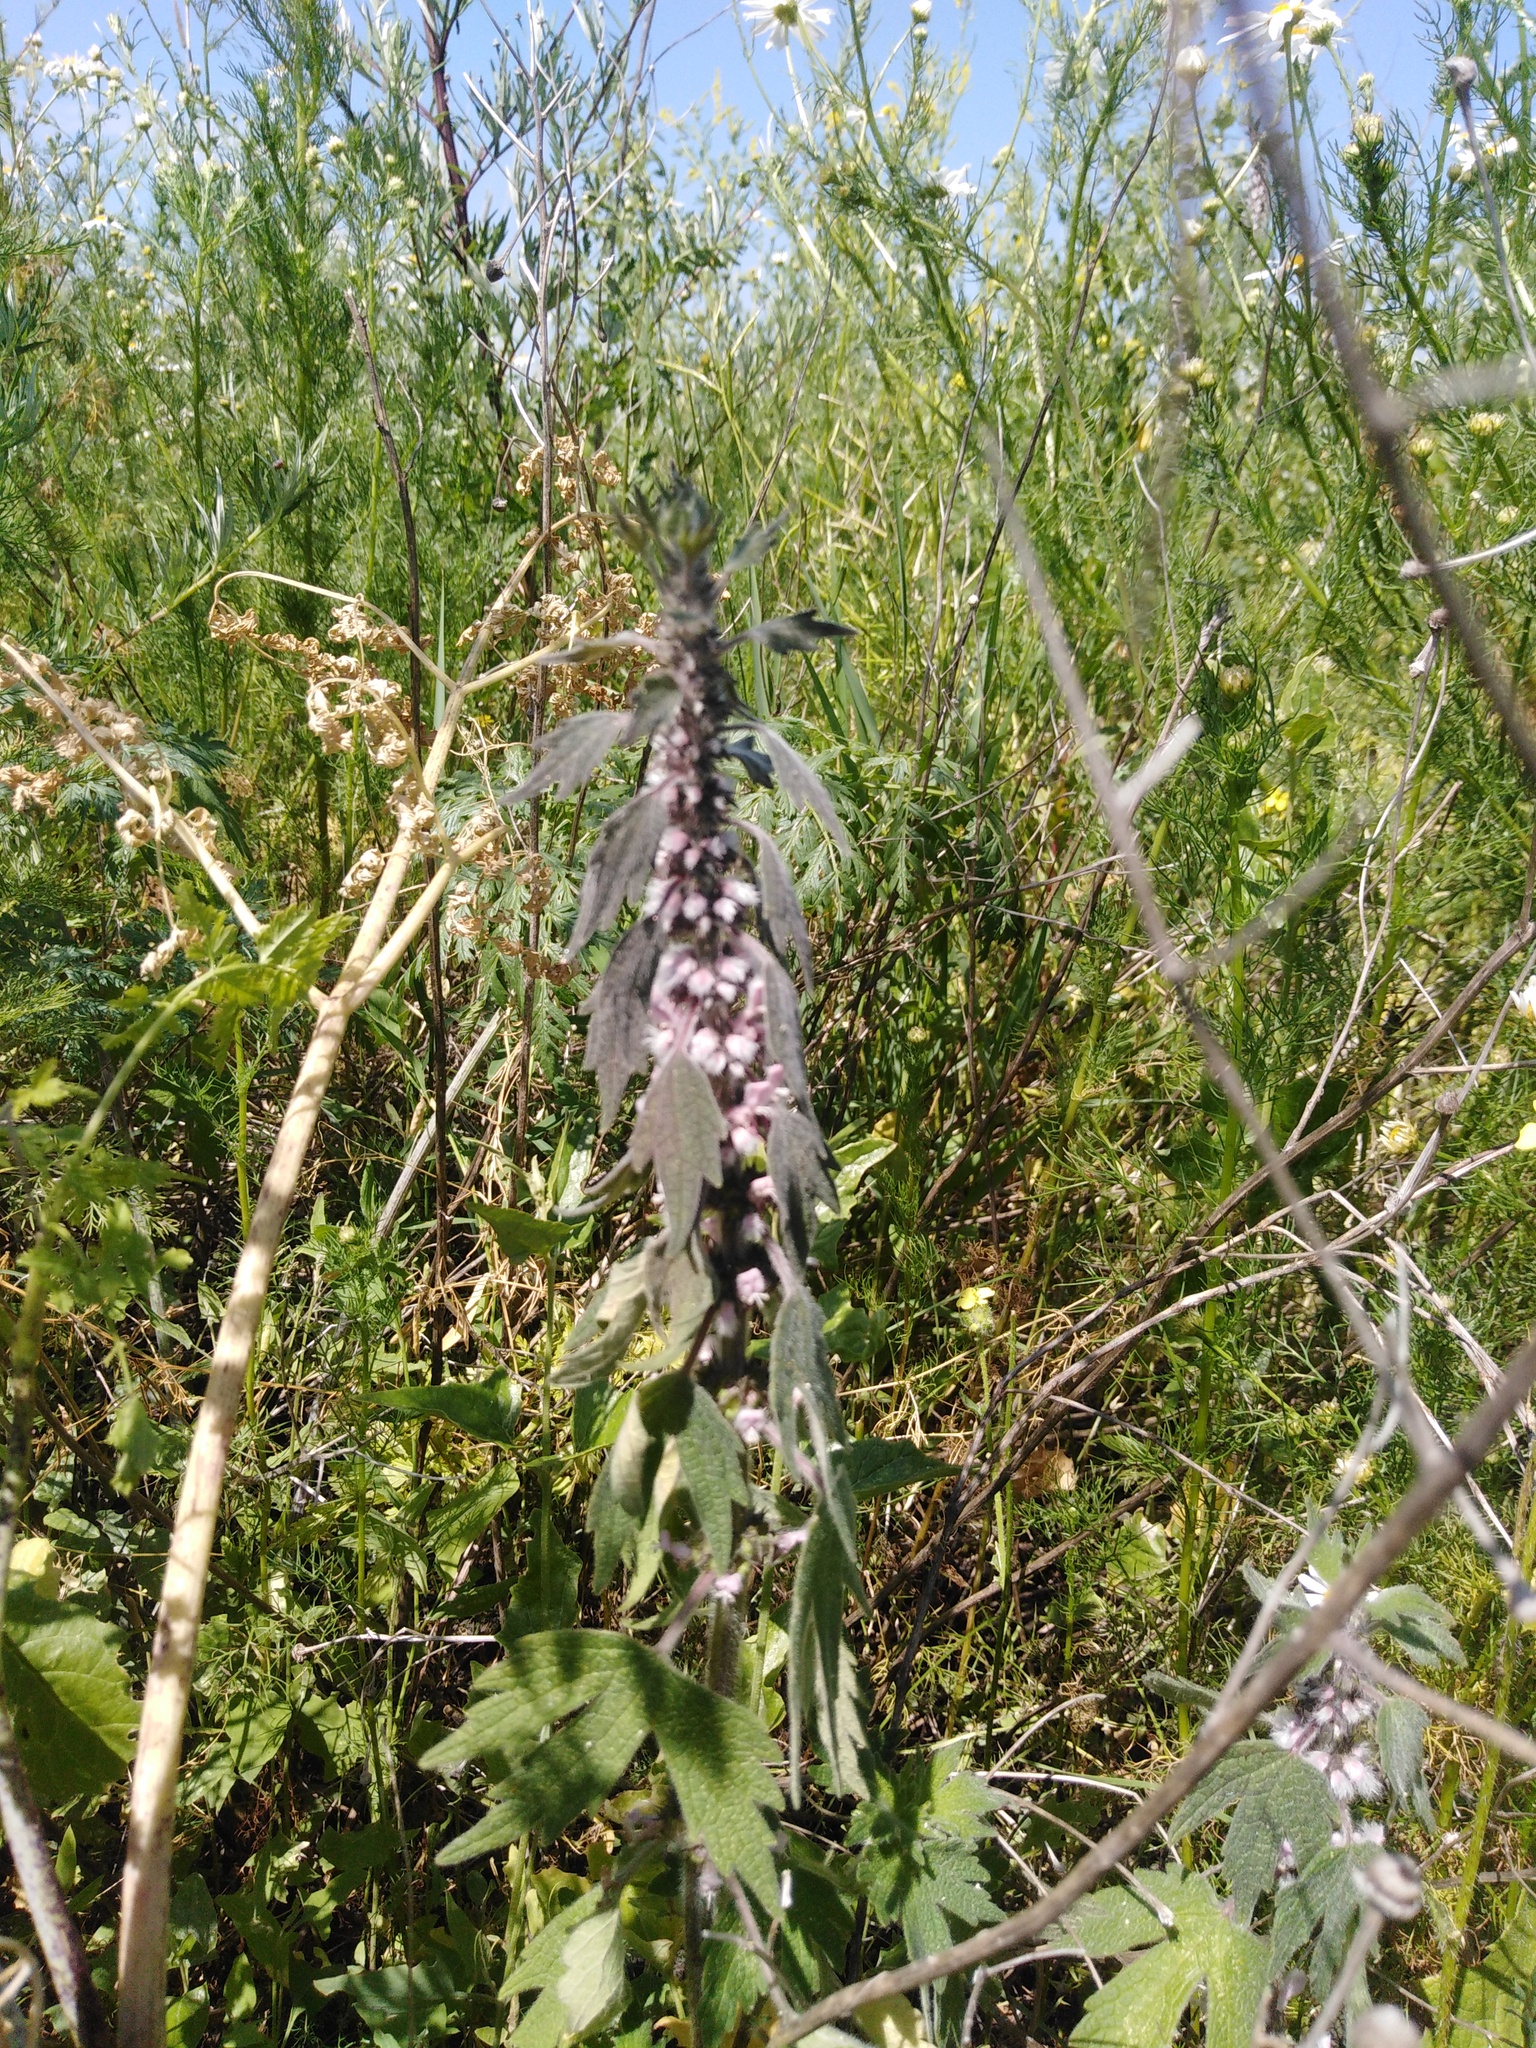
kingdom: Plantae
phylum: Tracheophyta
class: Magnoliopsida
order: Lamiales
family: Lamiaceae
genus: Leonurus
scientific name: Leonurus quinquelobatus
